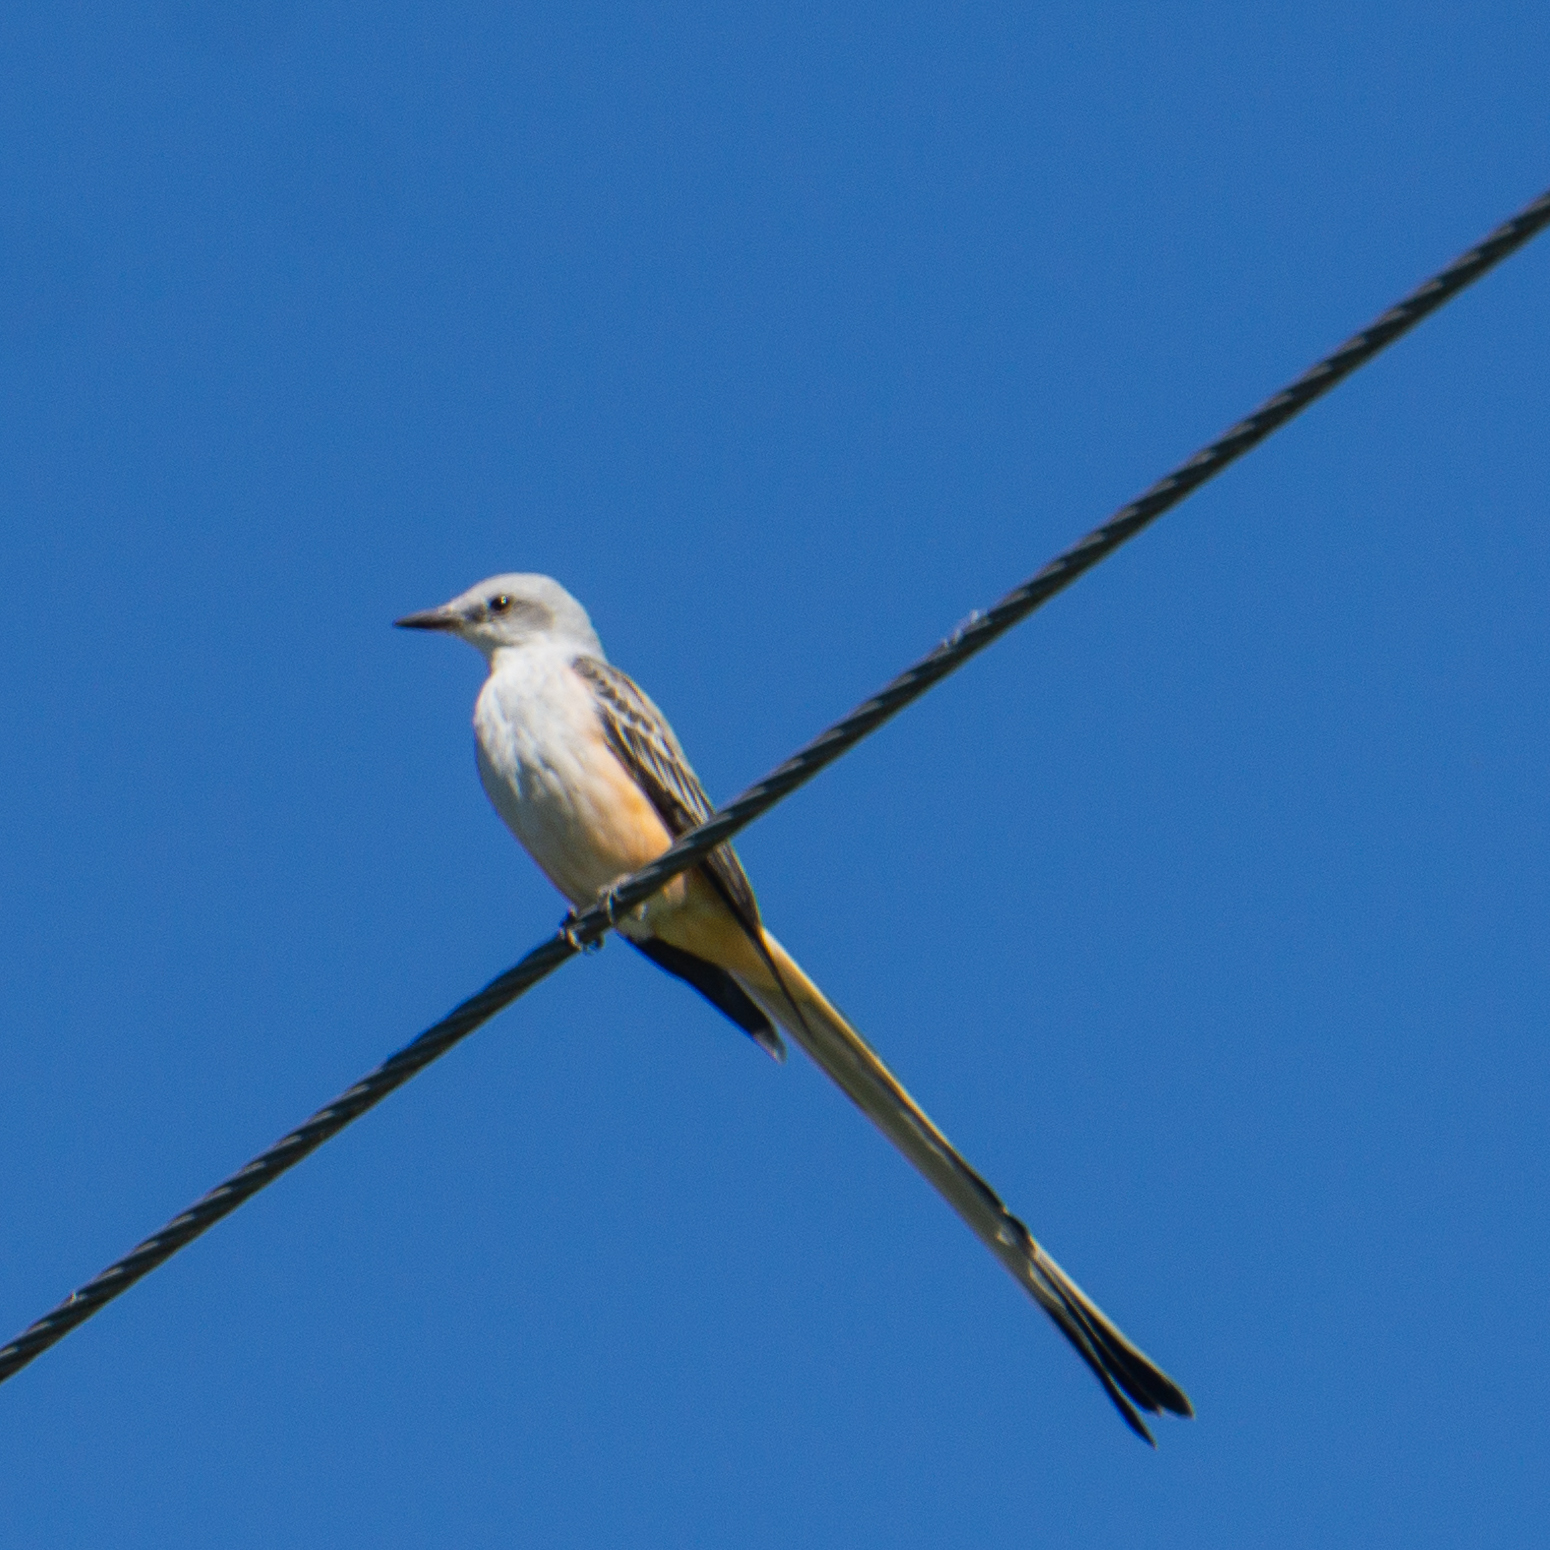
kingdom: Animalia
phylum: Chordata
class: Aves
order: Passeriformes
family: Tyrannidae
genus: Tyrannus
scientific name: Tyrannus forficatus
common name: Scissor-tailed flycatcher
